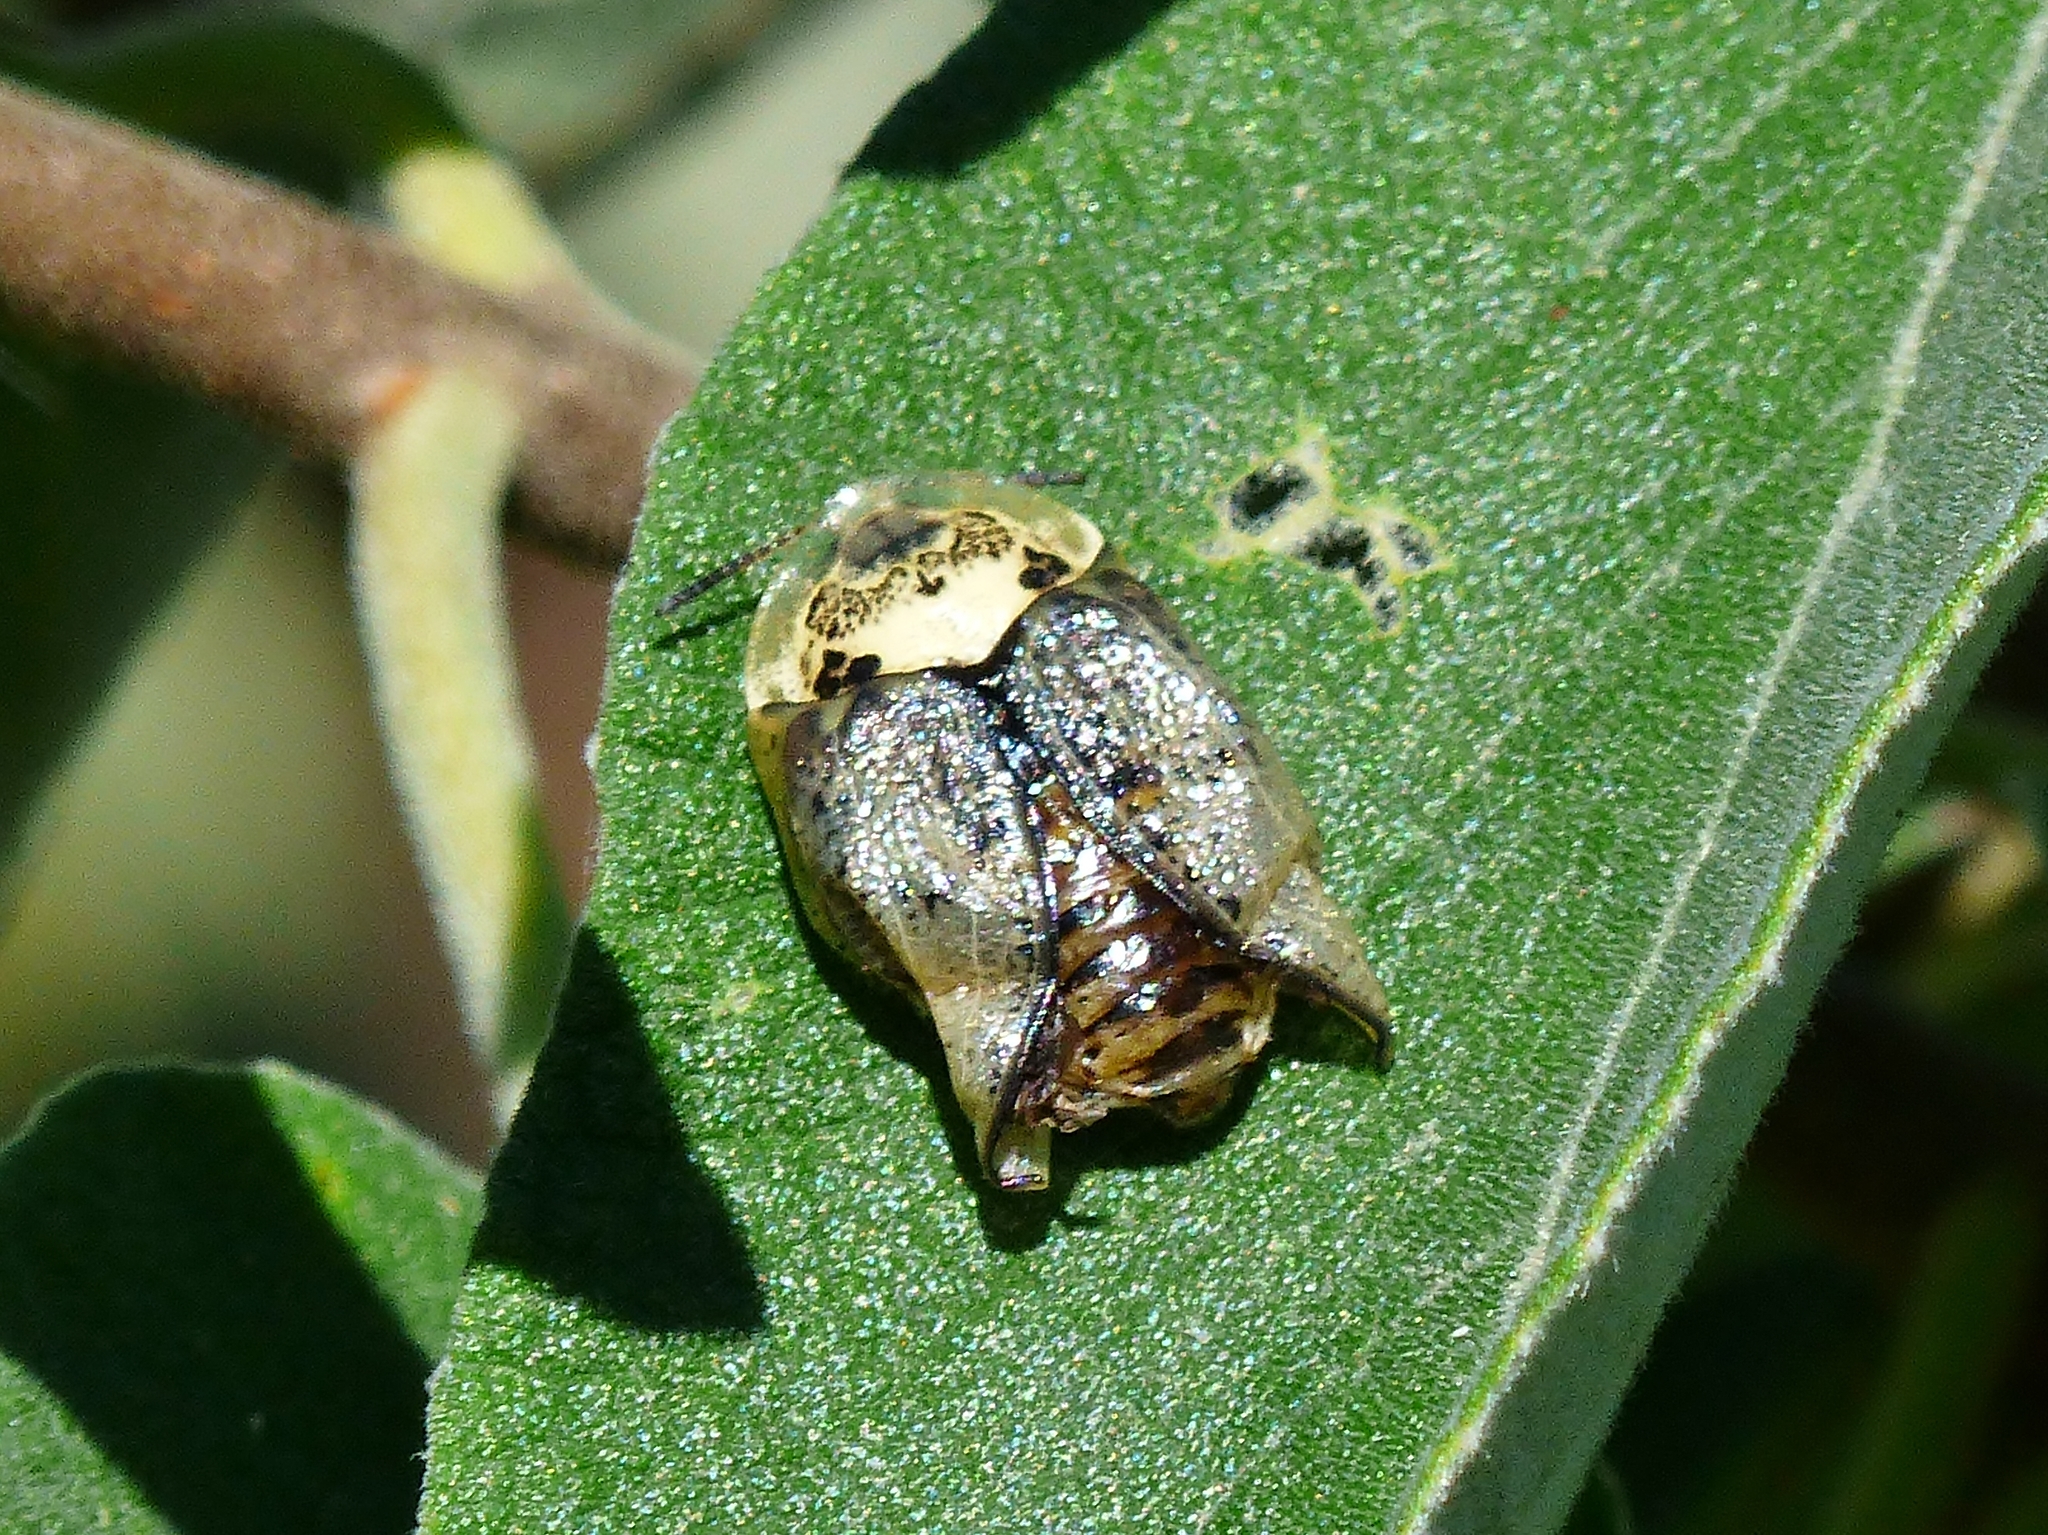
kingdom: Animalia
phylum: Arthropoda
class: Insecta
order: Coleoptera
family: Chrysomelidae
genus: Physonota
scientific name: Physonota alutacea
